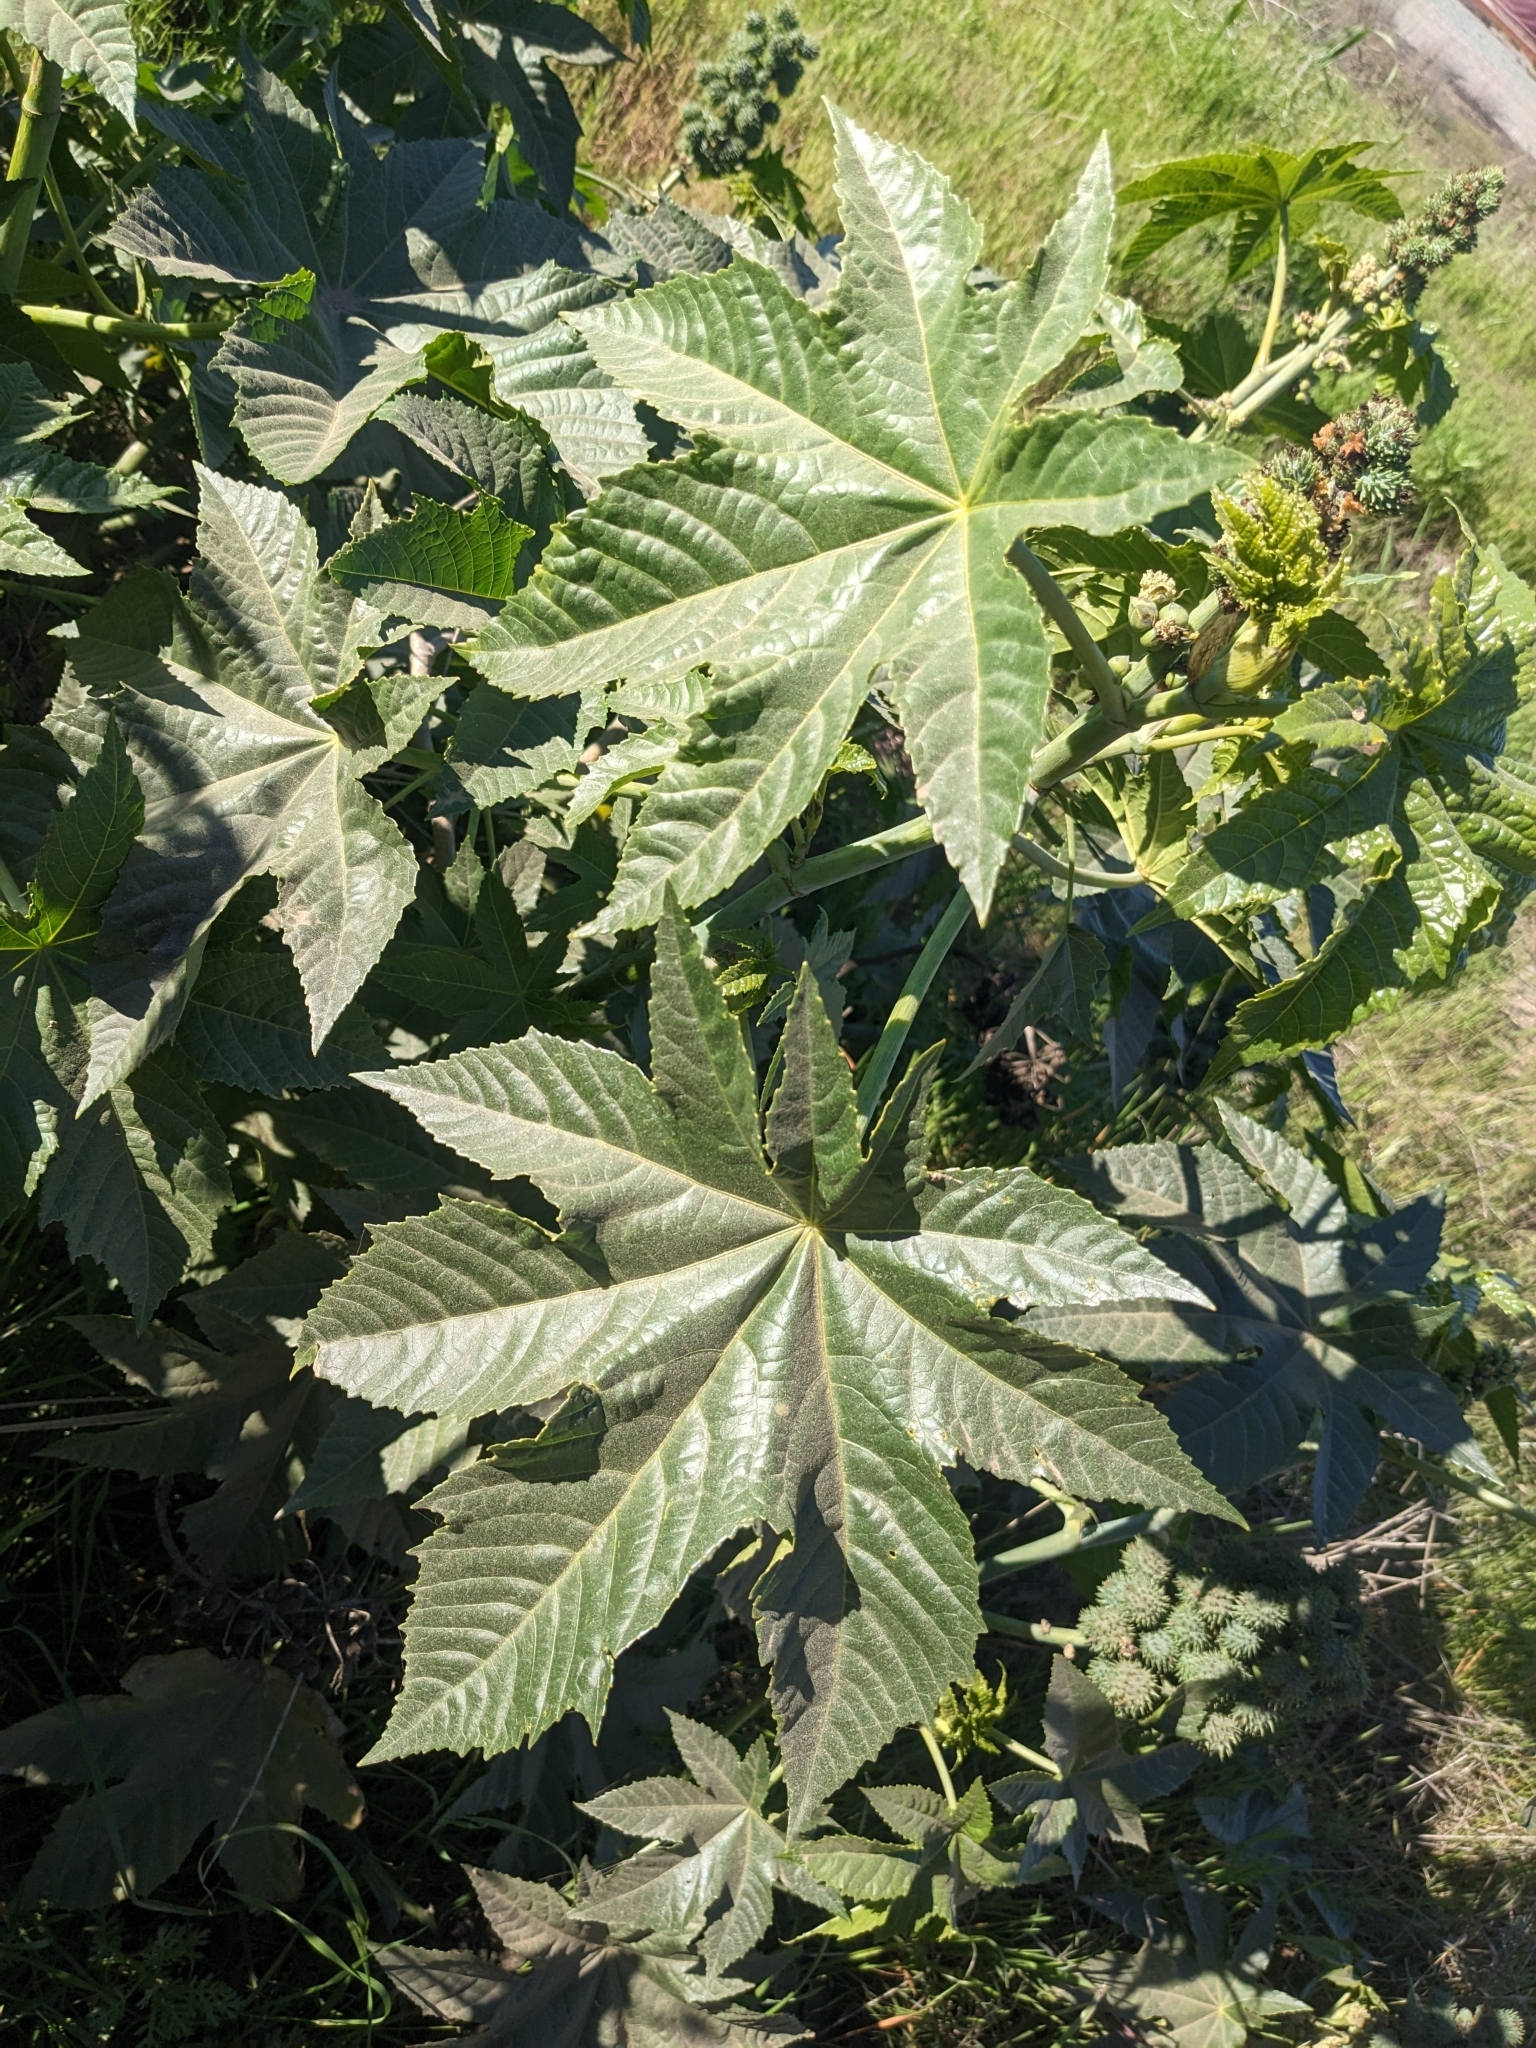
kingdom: Plantae
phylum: Tracheophyta
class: Magnoliopsida
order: Malpighiales
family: Euphorbiaceae
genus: Ricinus
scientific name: Ricinus communis
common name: Castor-oil-plant
